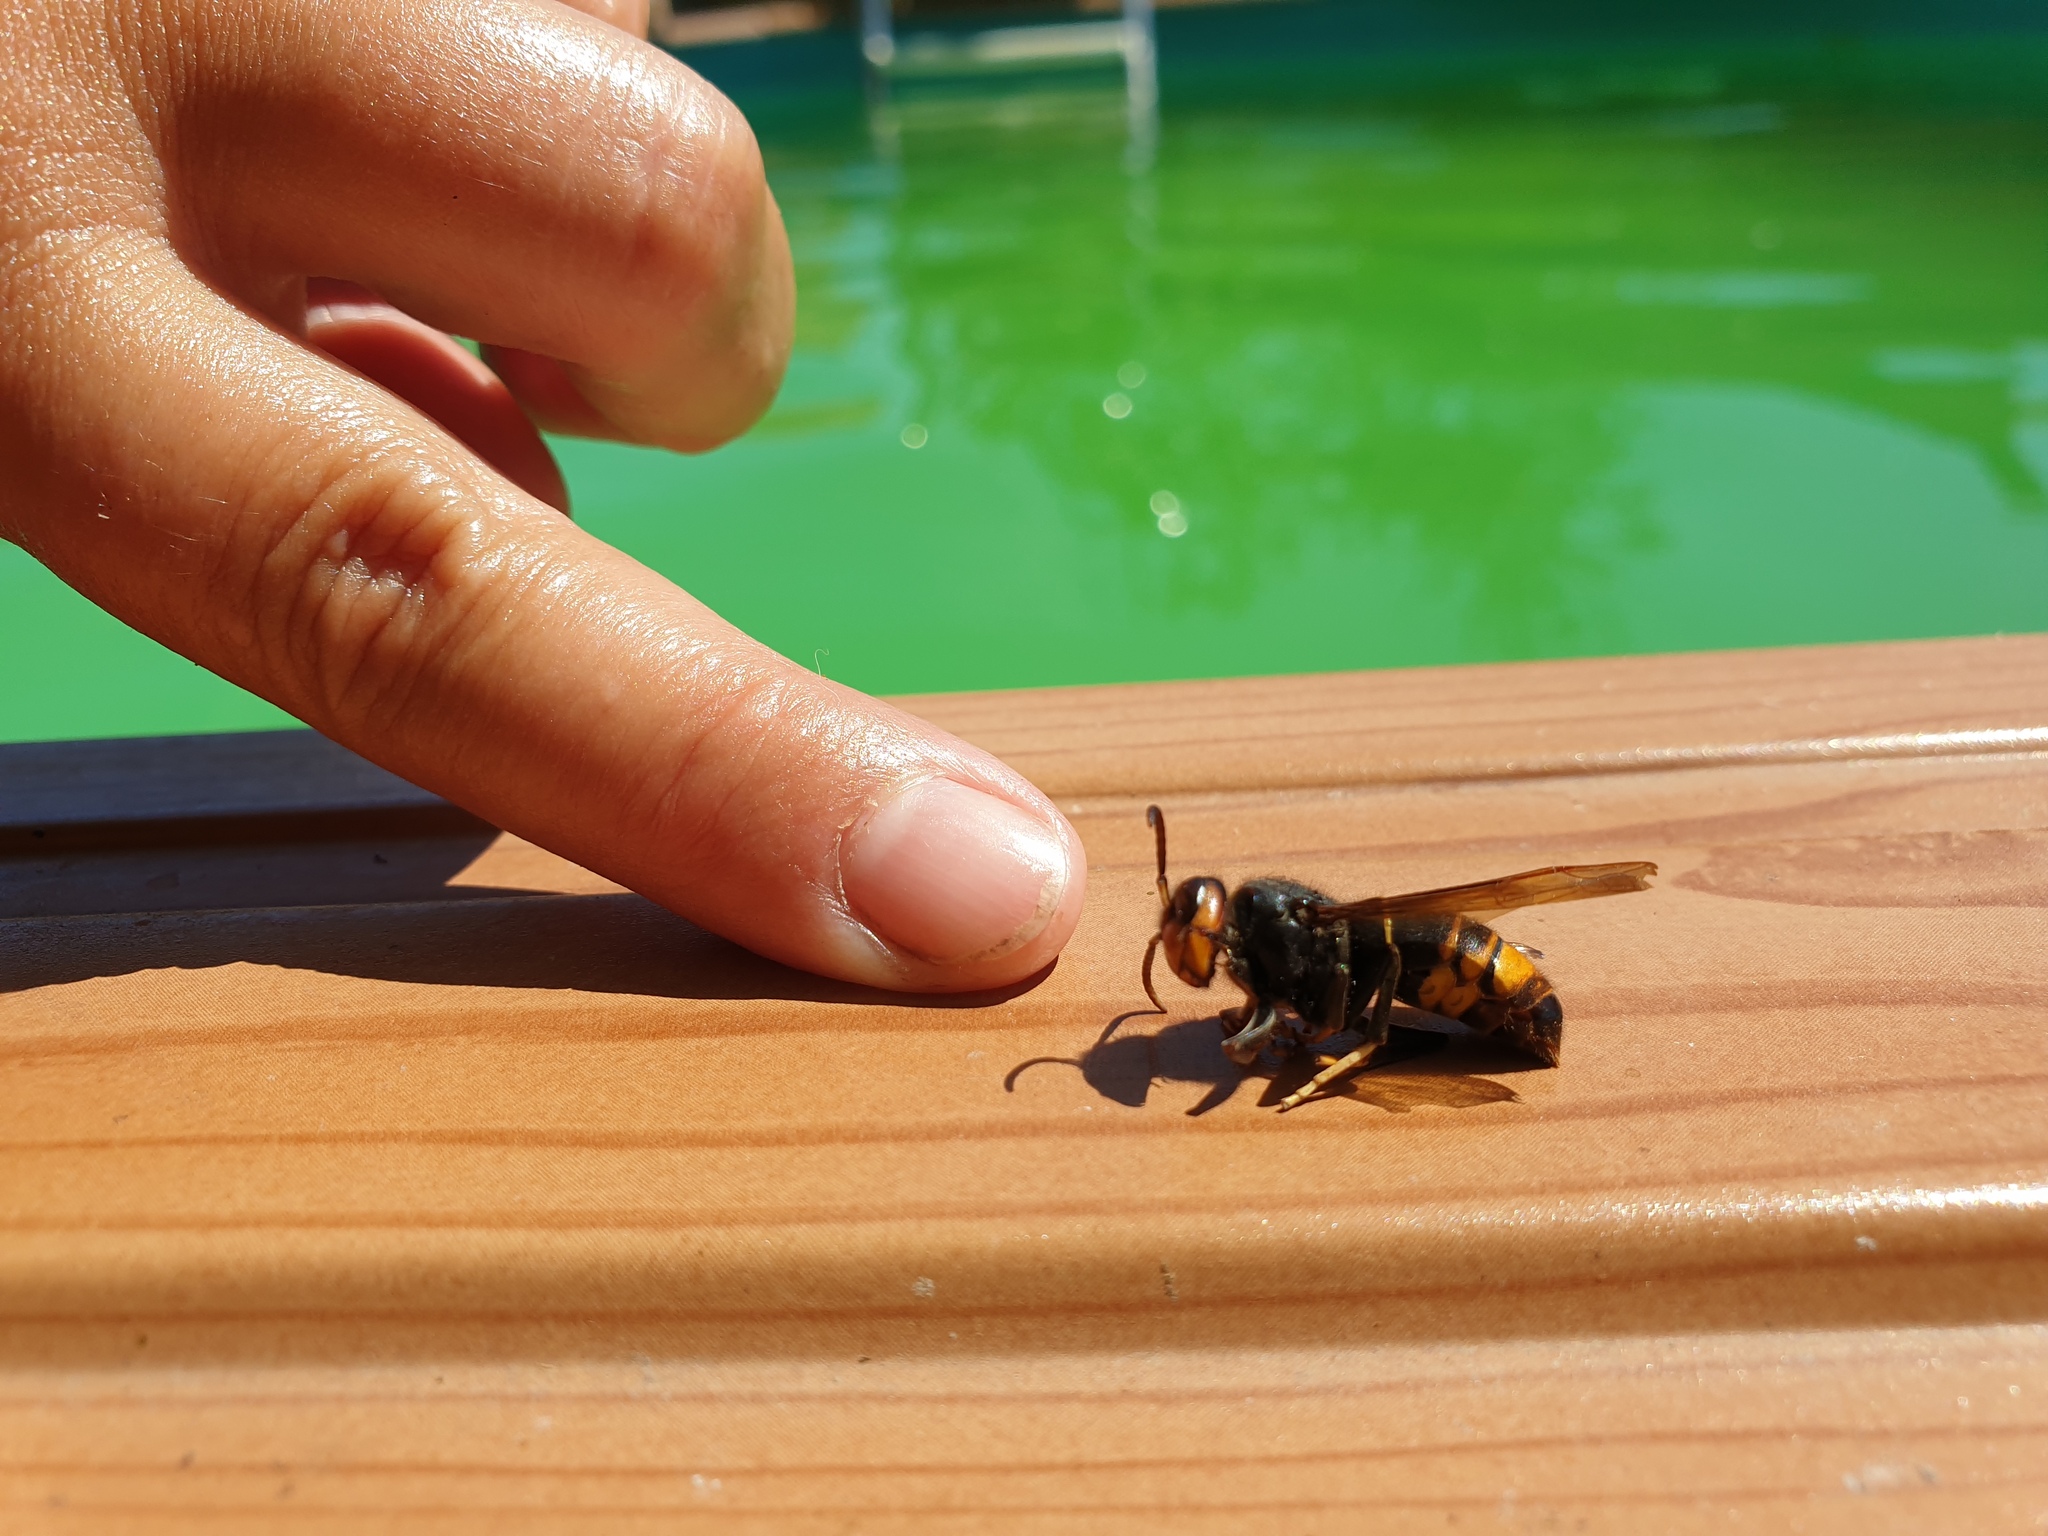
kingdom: Animalia
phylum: Arthropoda
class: Insecta
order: Hymenoptera
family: Vespidae
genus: Vespa
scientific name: Vespa velutina
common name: Asian hornet
